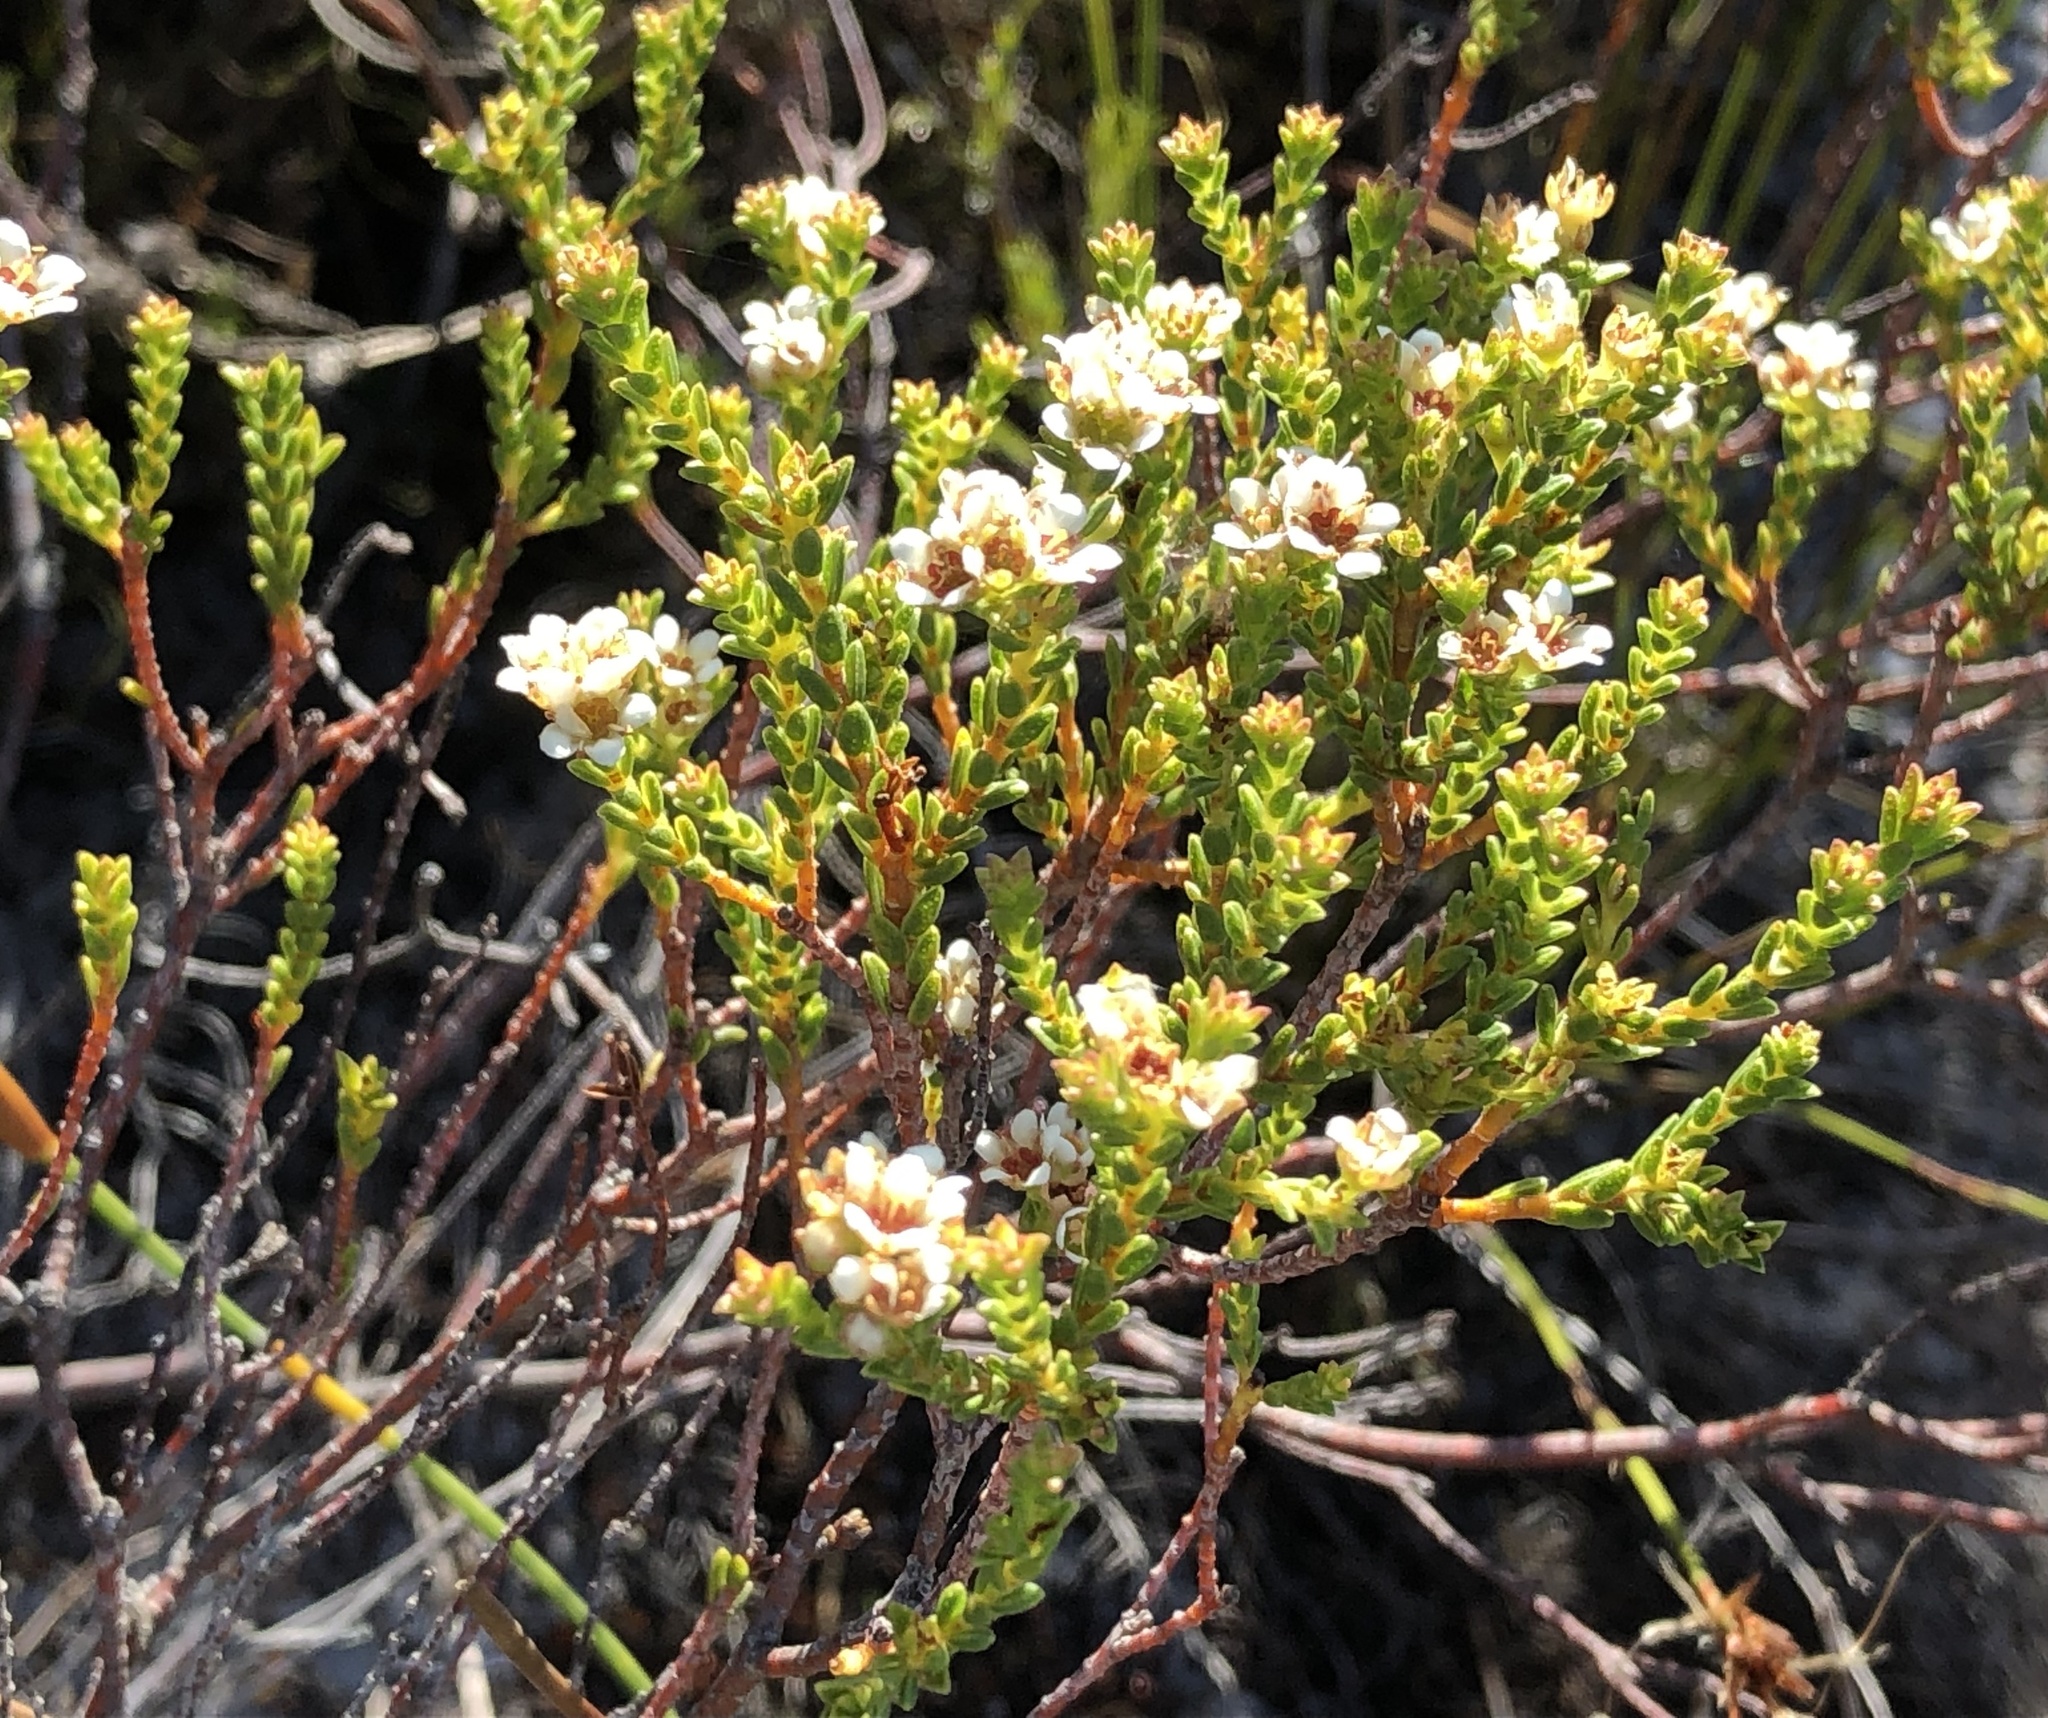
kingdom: Plantae
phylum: Tracheophyta
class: Magnoliopsida
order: Sapindales
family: Rutaceae
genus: Diosma
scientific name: Diosma oppositifolia
